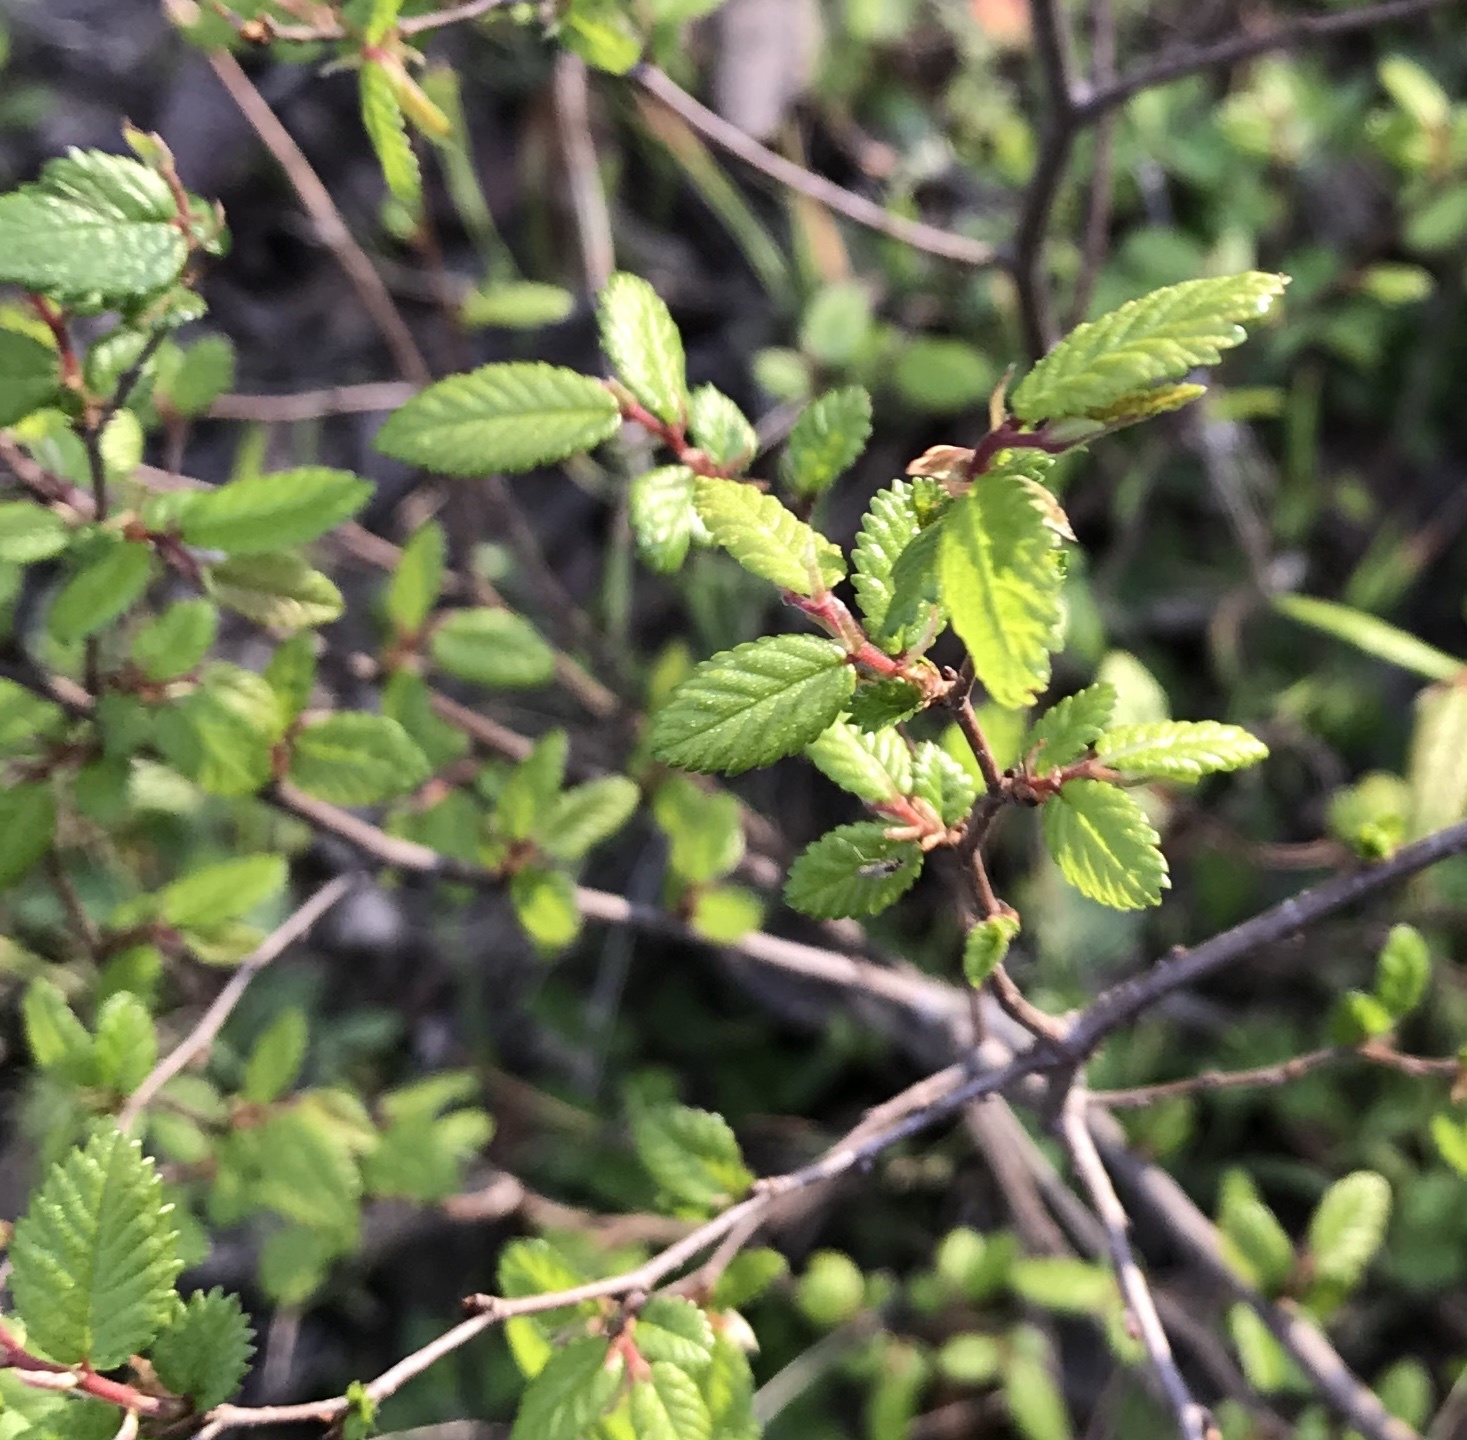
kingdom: Plantae
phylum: Tracheophyta
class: Magnoliopsida
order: Rosales
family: Ulmaceae
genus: Ulmus
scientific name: Ulmus crassifolia
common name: Basket elm
